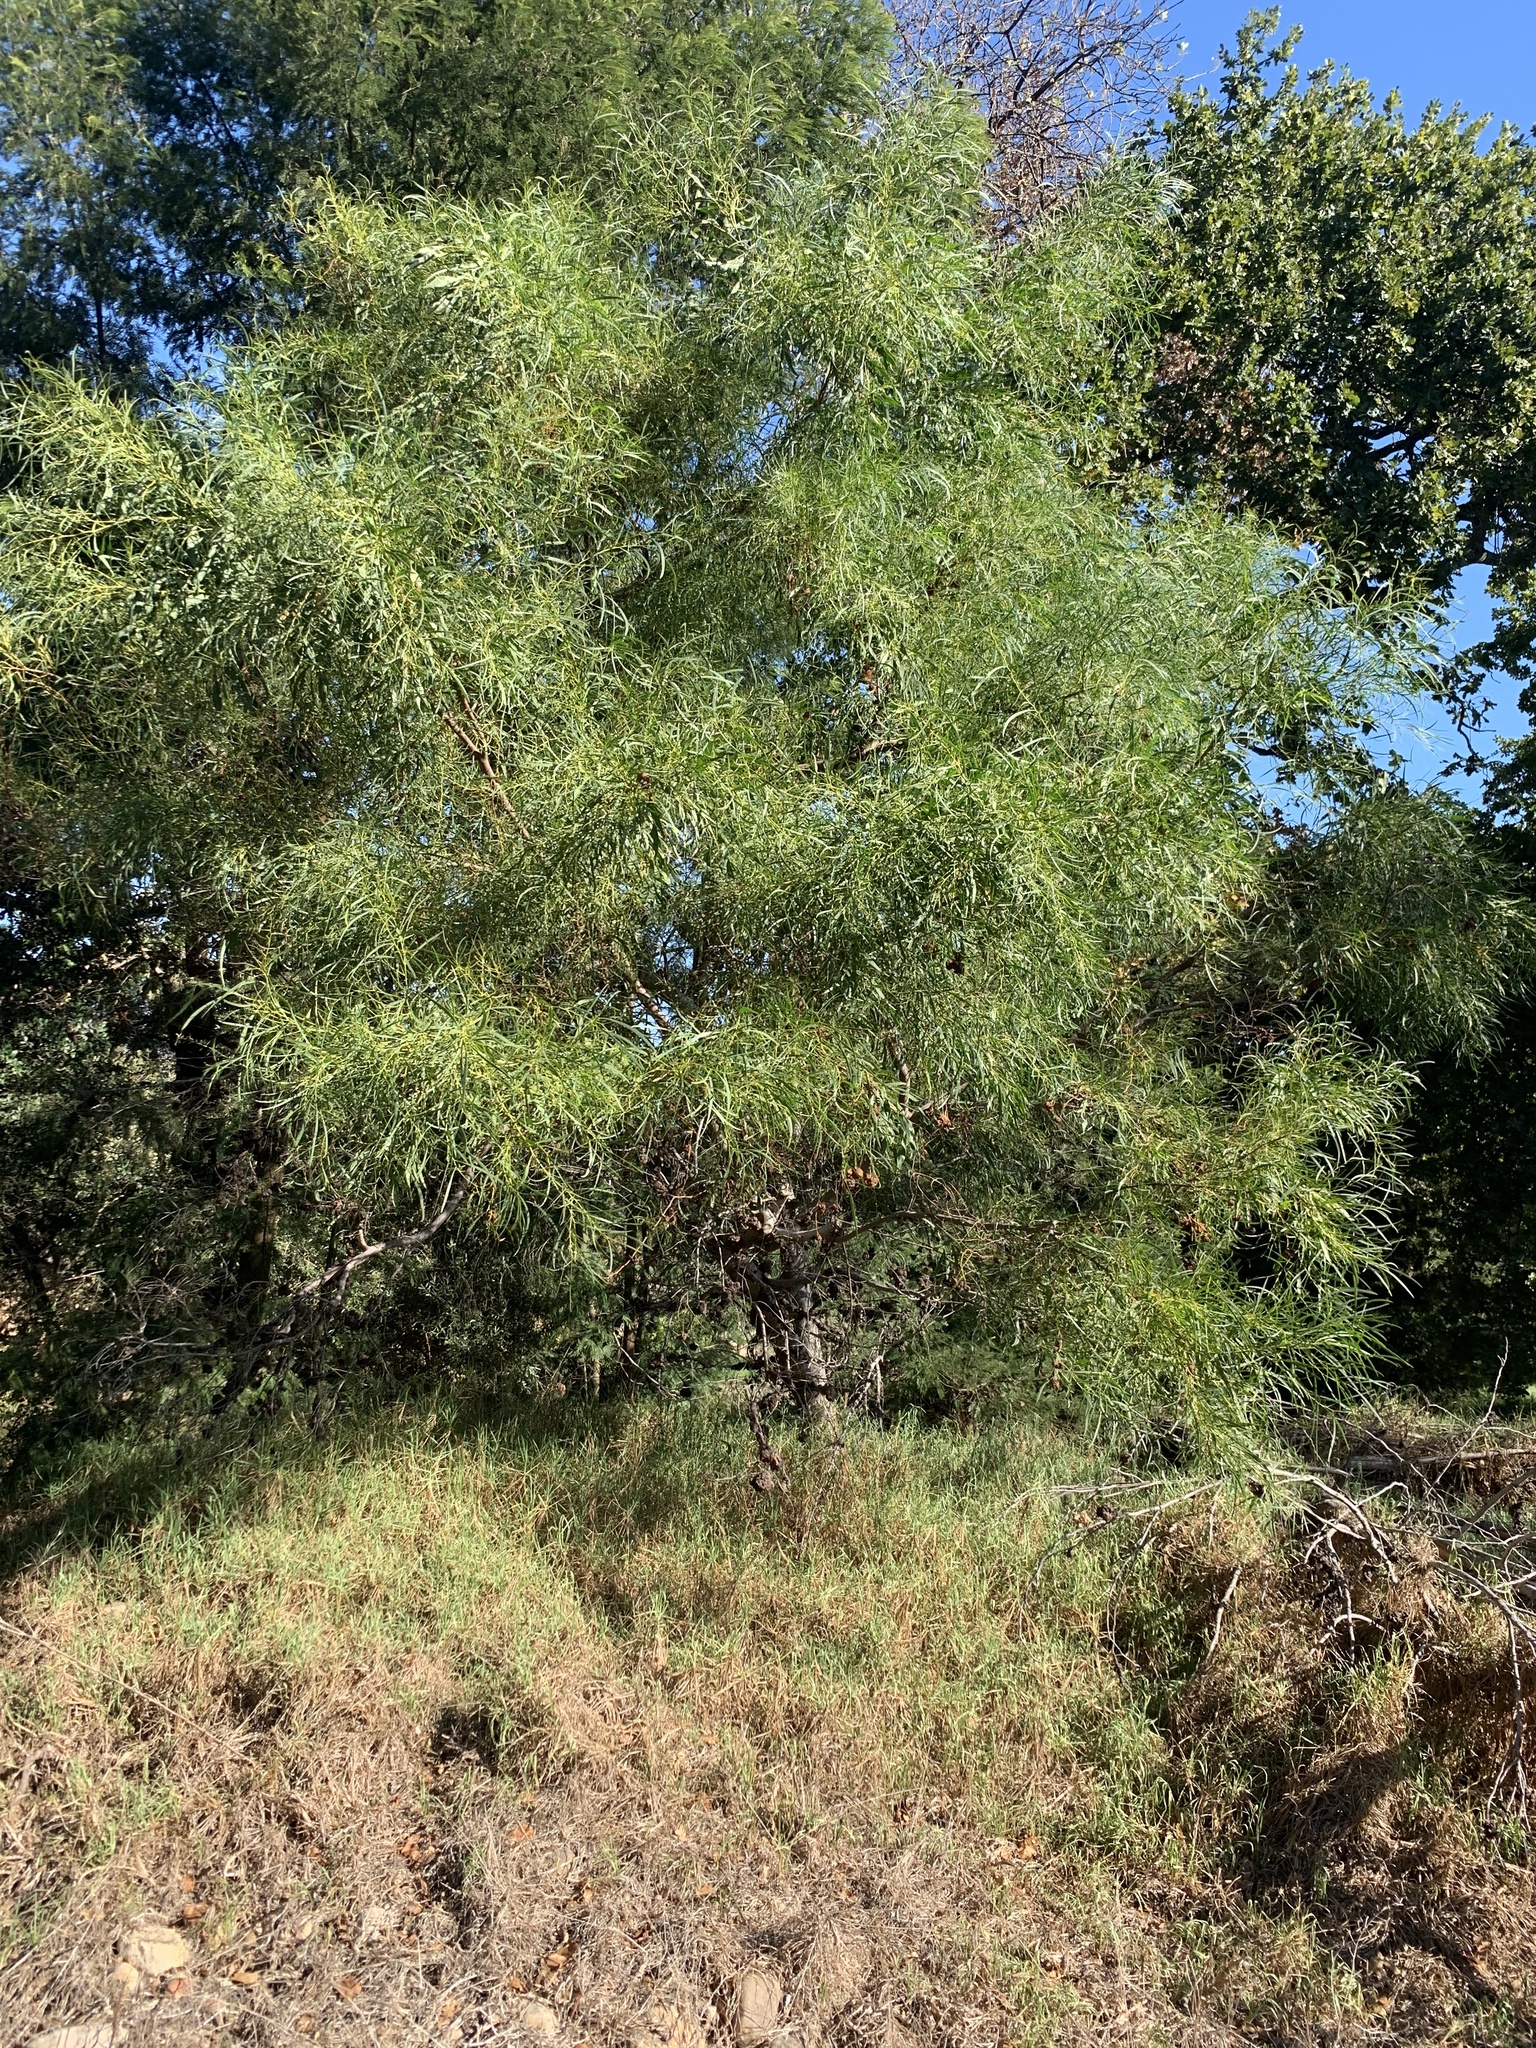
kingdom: Plantae
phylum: Tracheophyta
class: Magnoliopsida
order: Fabales
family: Fabaceae
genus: Acacia
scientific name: Acacia saligna
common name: Orange wattle
